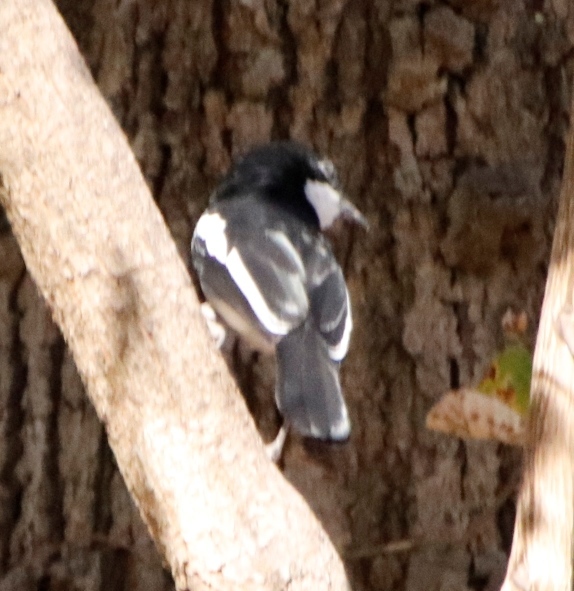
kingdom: Animalia
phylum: Chordata
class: Aves
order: Passeriformes
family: Malaconotidae
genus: Laniarius
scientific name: Laniarius bicolor
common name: Swamp boubou
